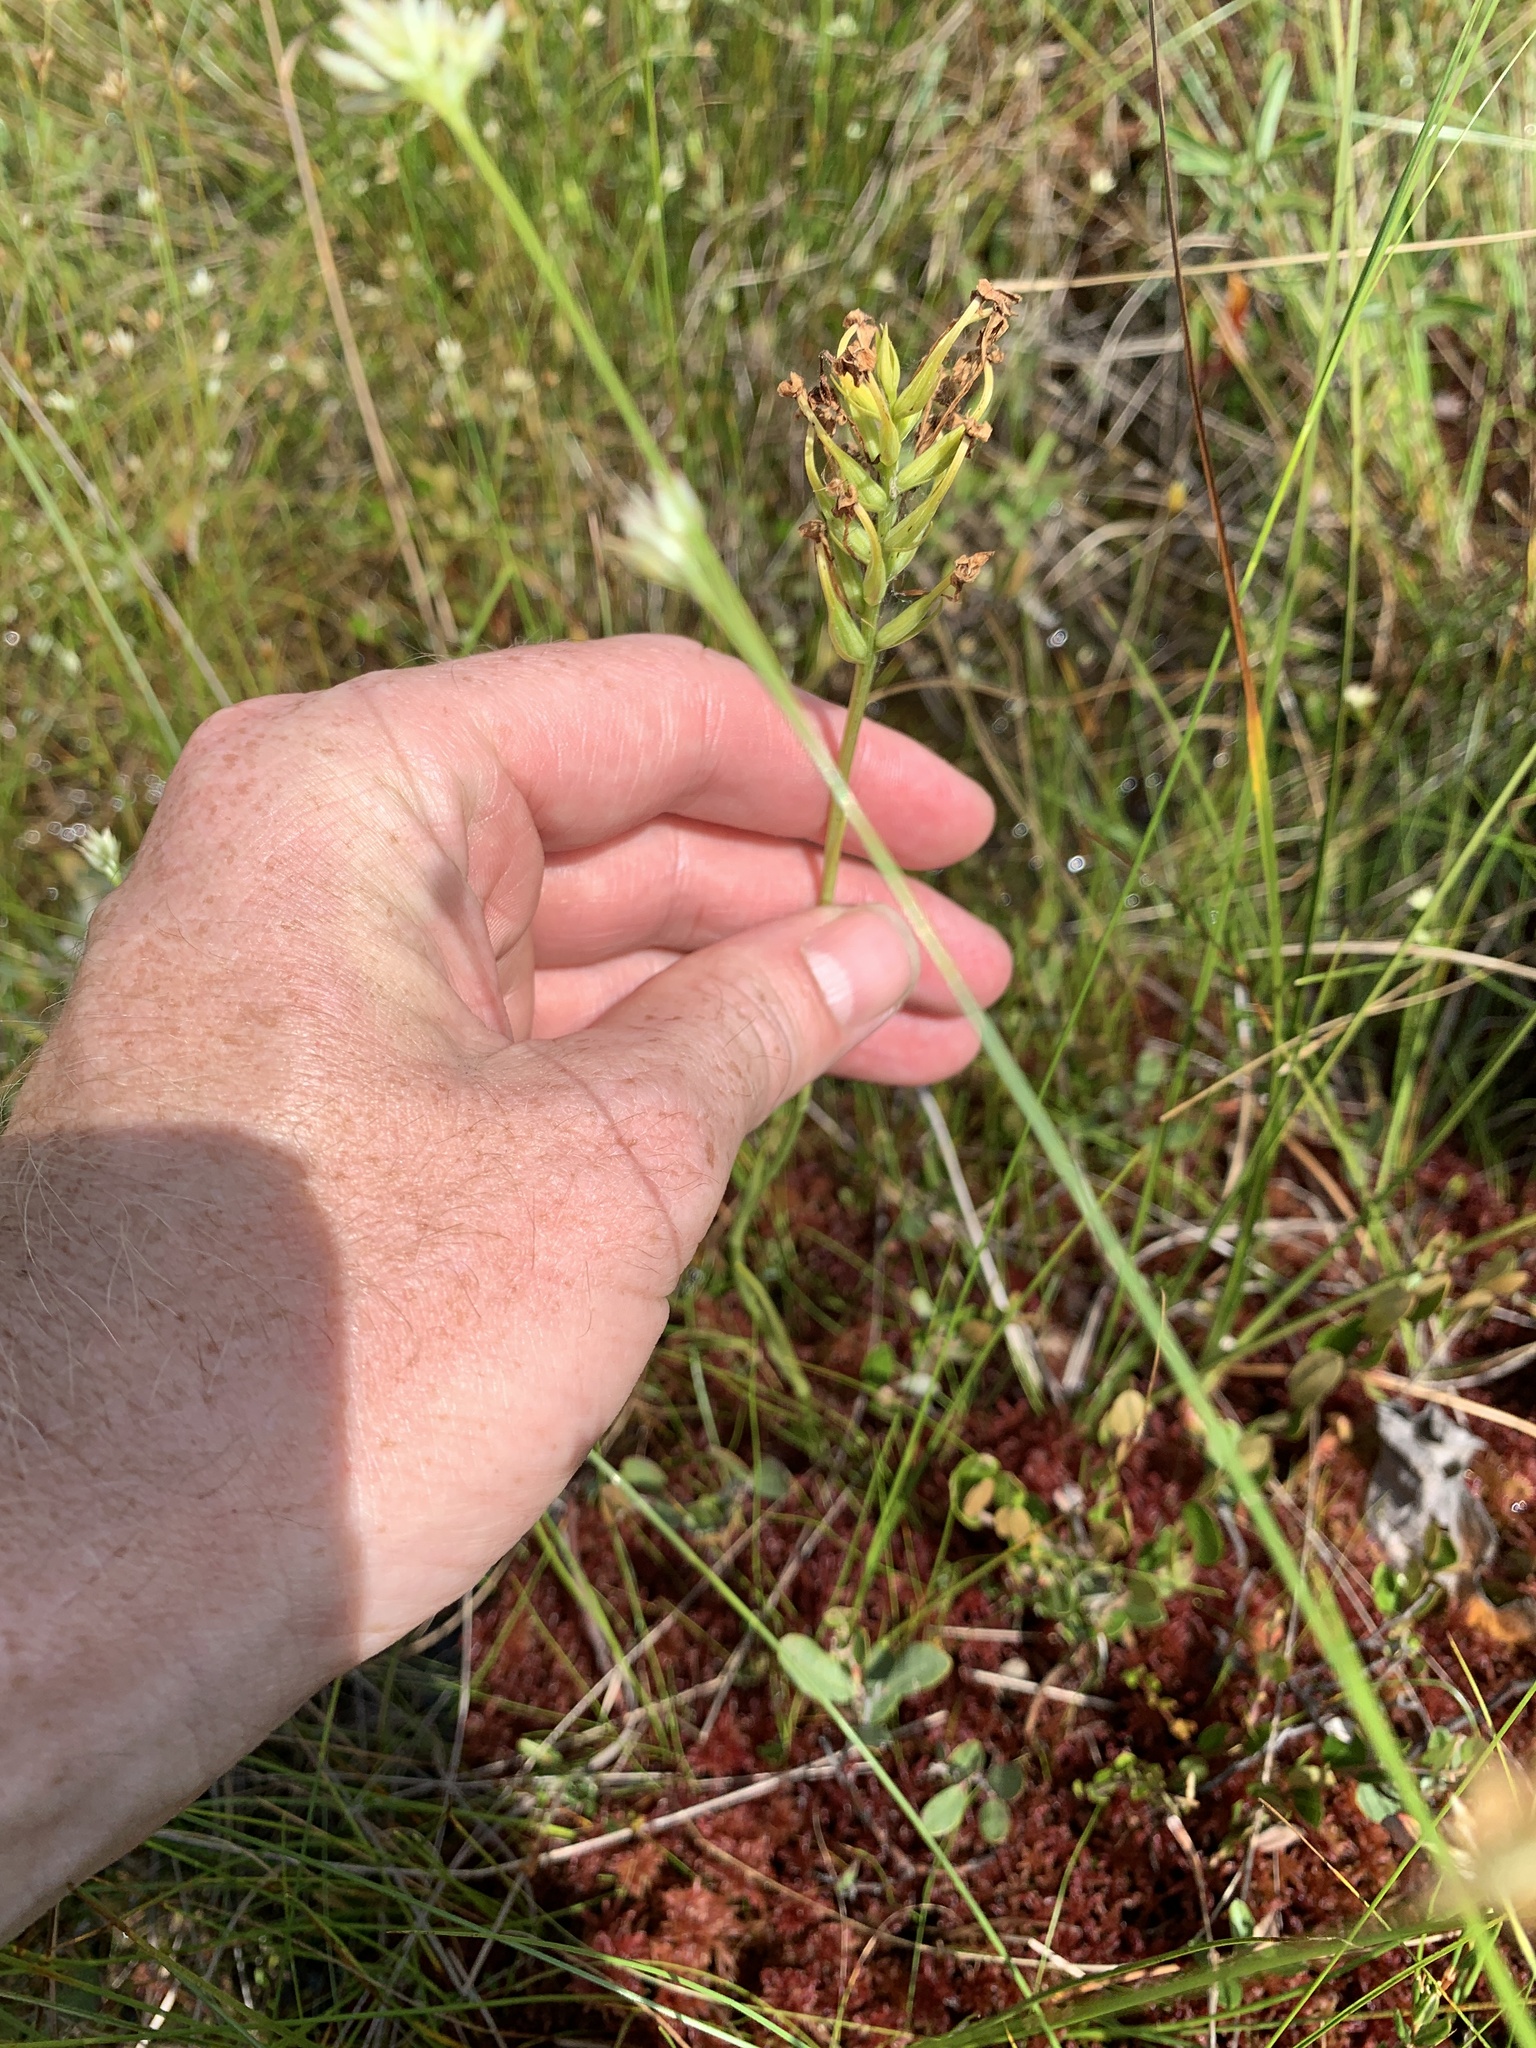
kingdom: Plantae
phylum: Tracheophyta
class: Liliopsida
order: Asparagales
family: Orchidaceae
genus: Platanthera
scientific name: Platanthera blephariglottis
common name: White fringed orchid
